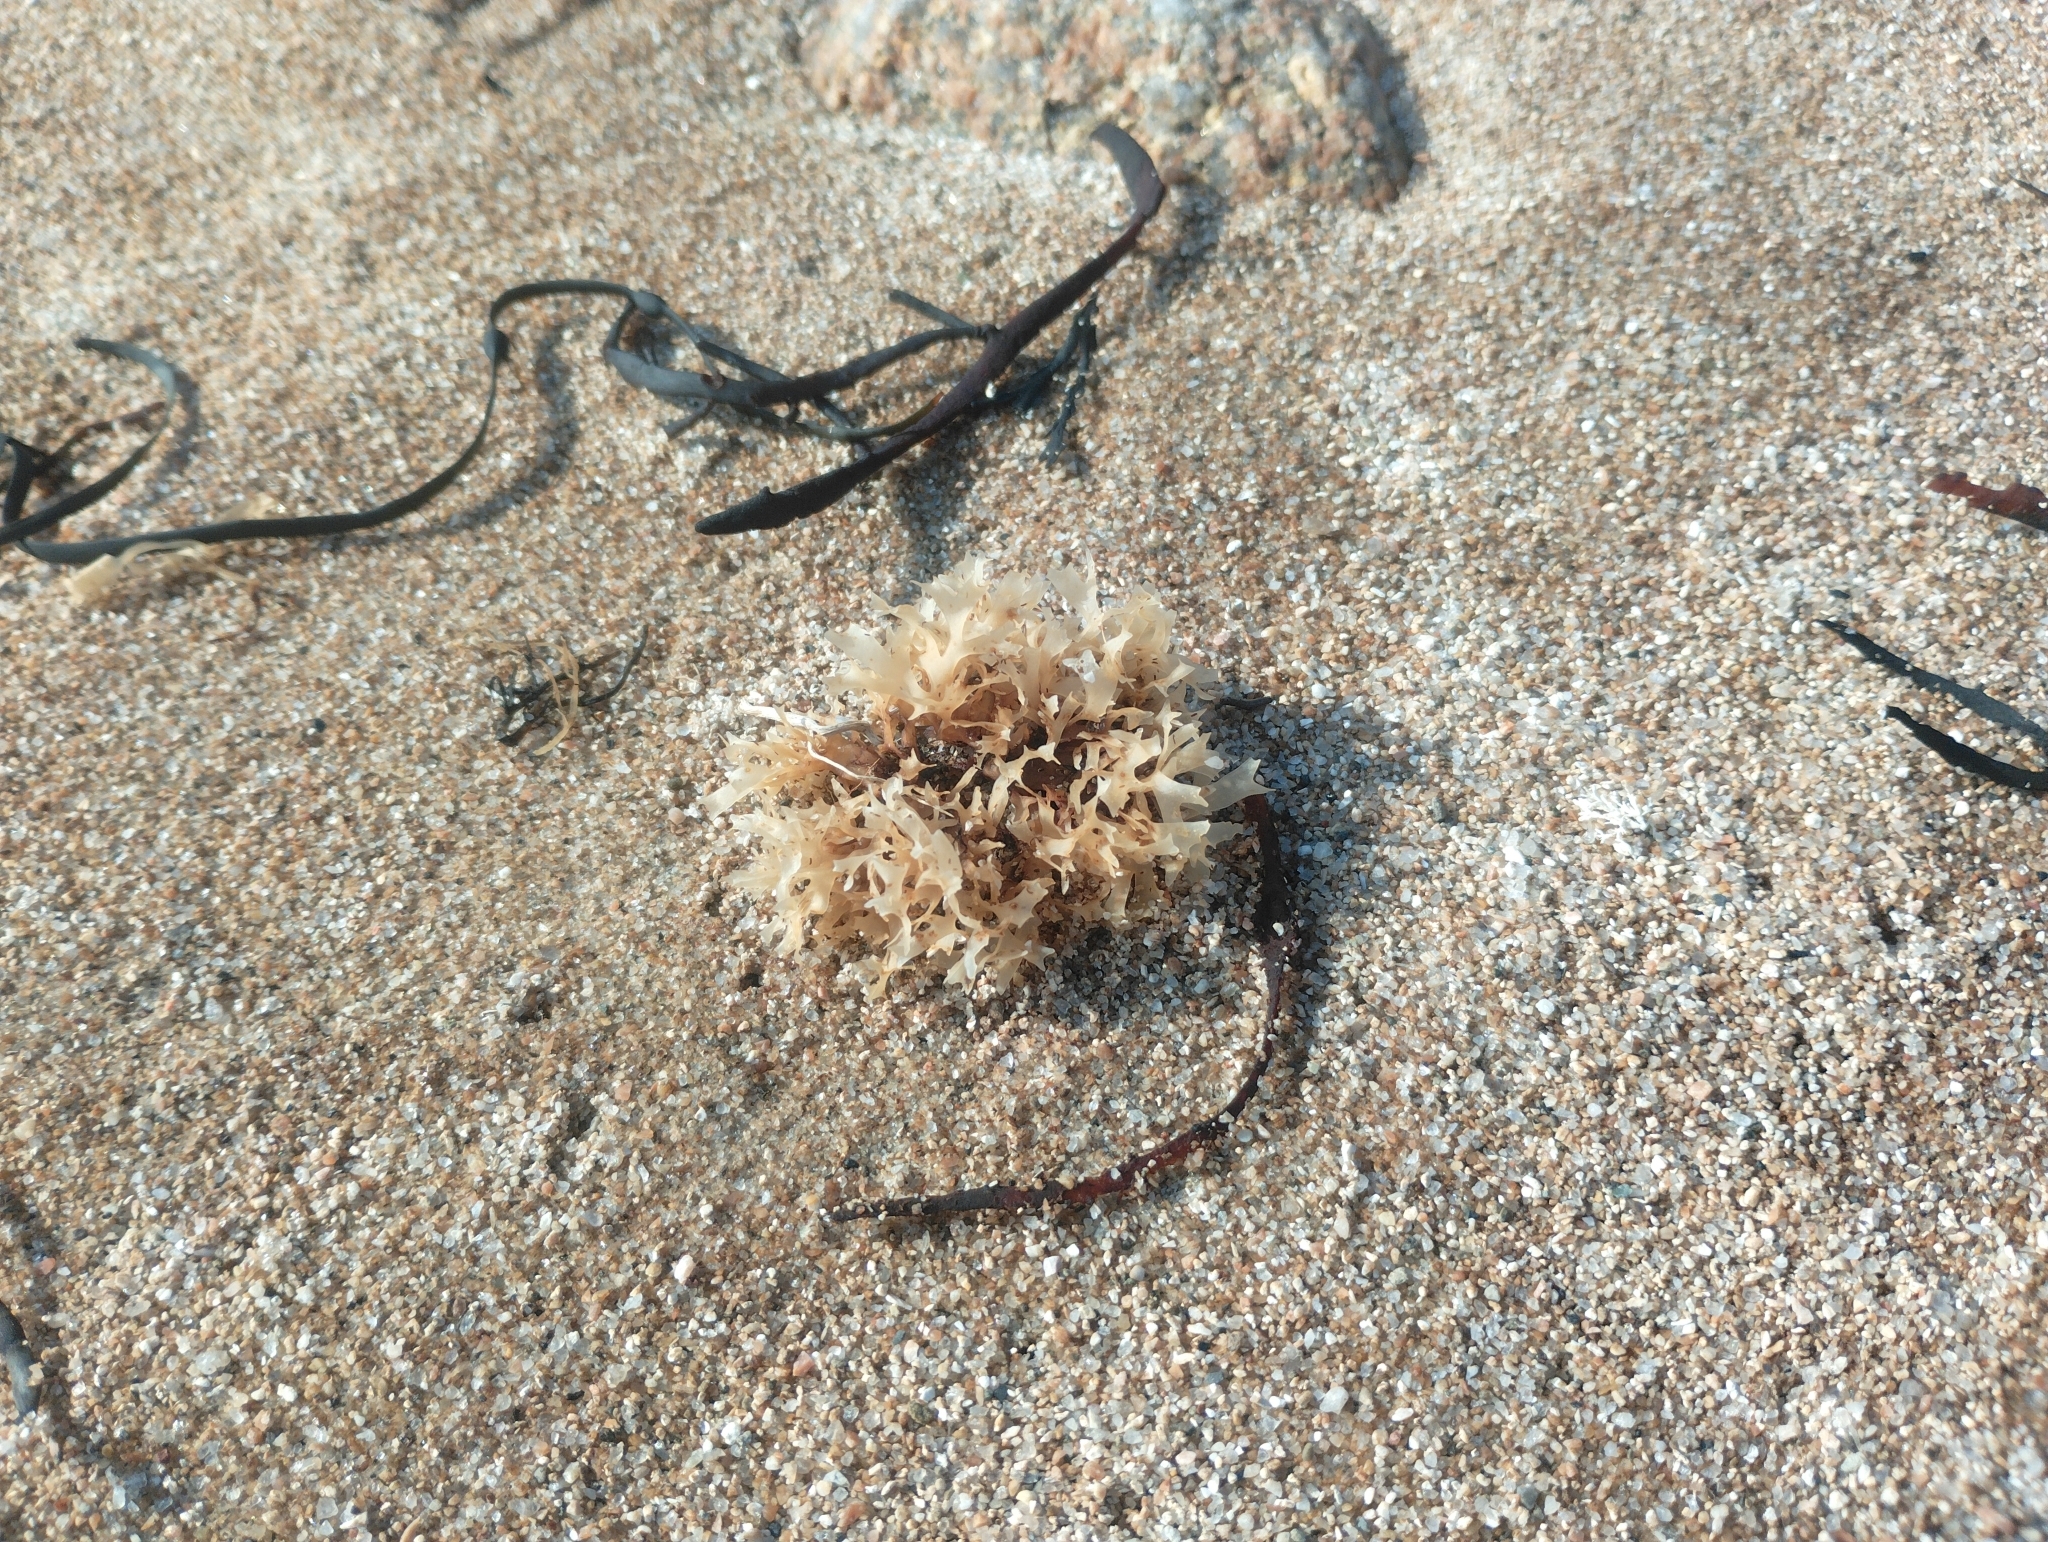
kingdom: Plantae
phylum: Rhodophyta
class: Florideophyceae
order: Gigartinales
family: Gigartinaceae
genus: Chondrus
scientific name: Chondrus crispus
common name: Carrageen
